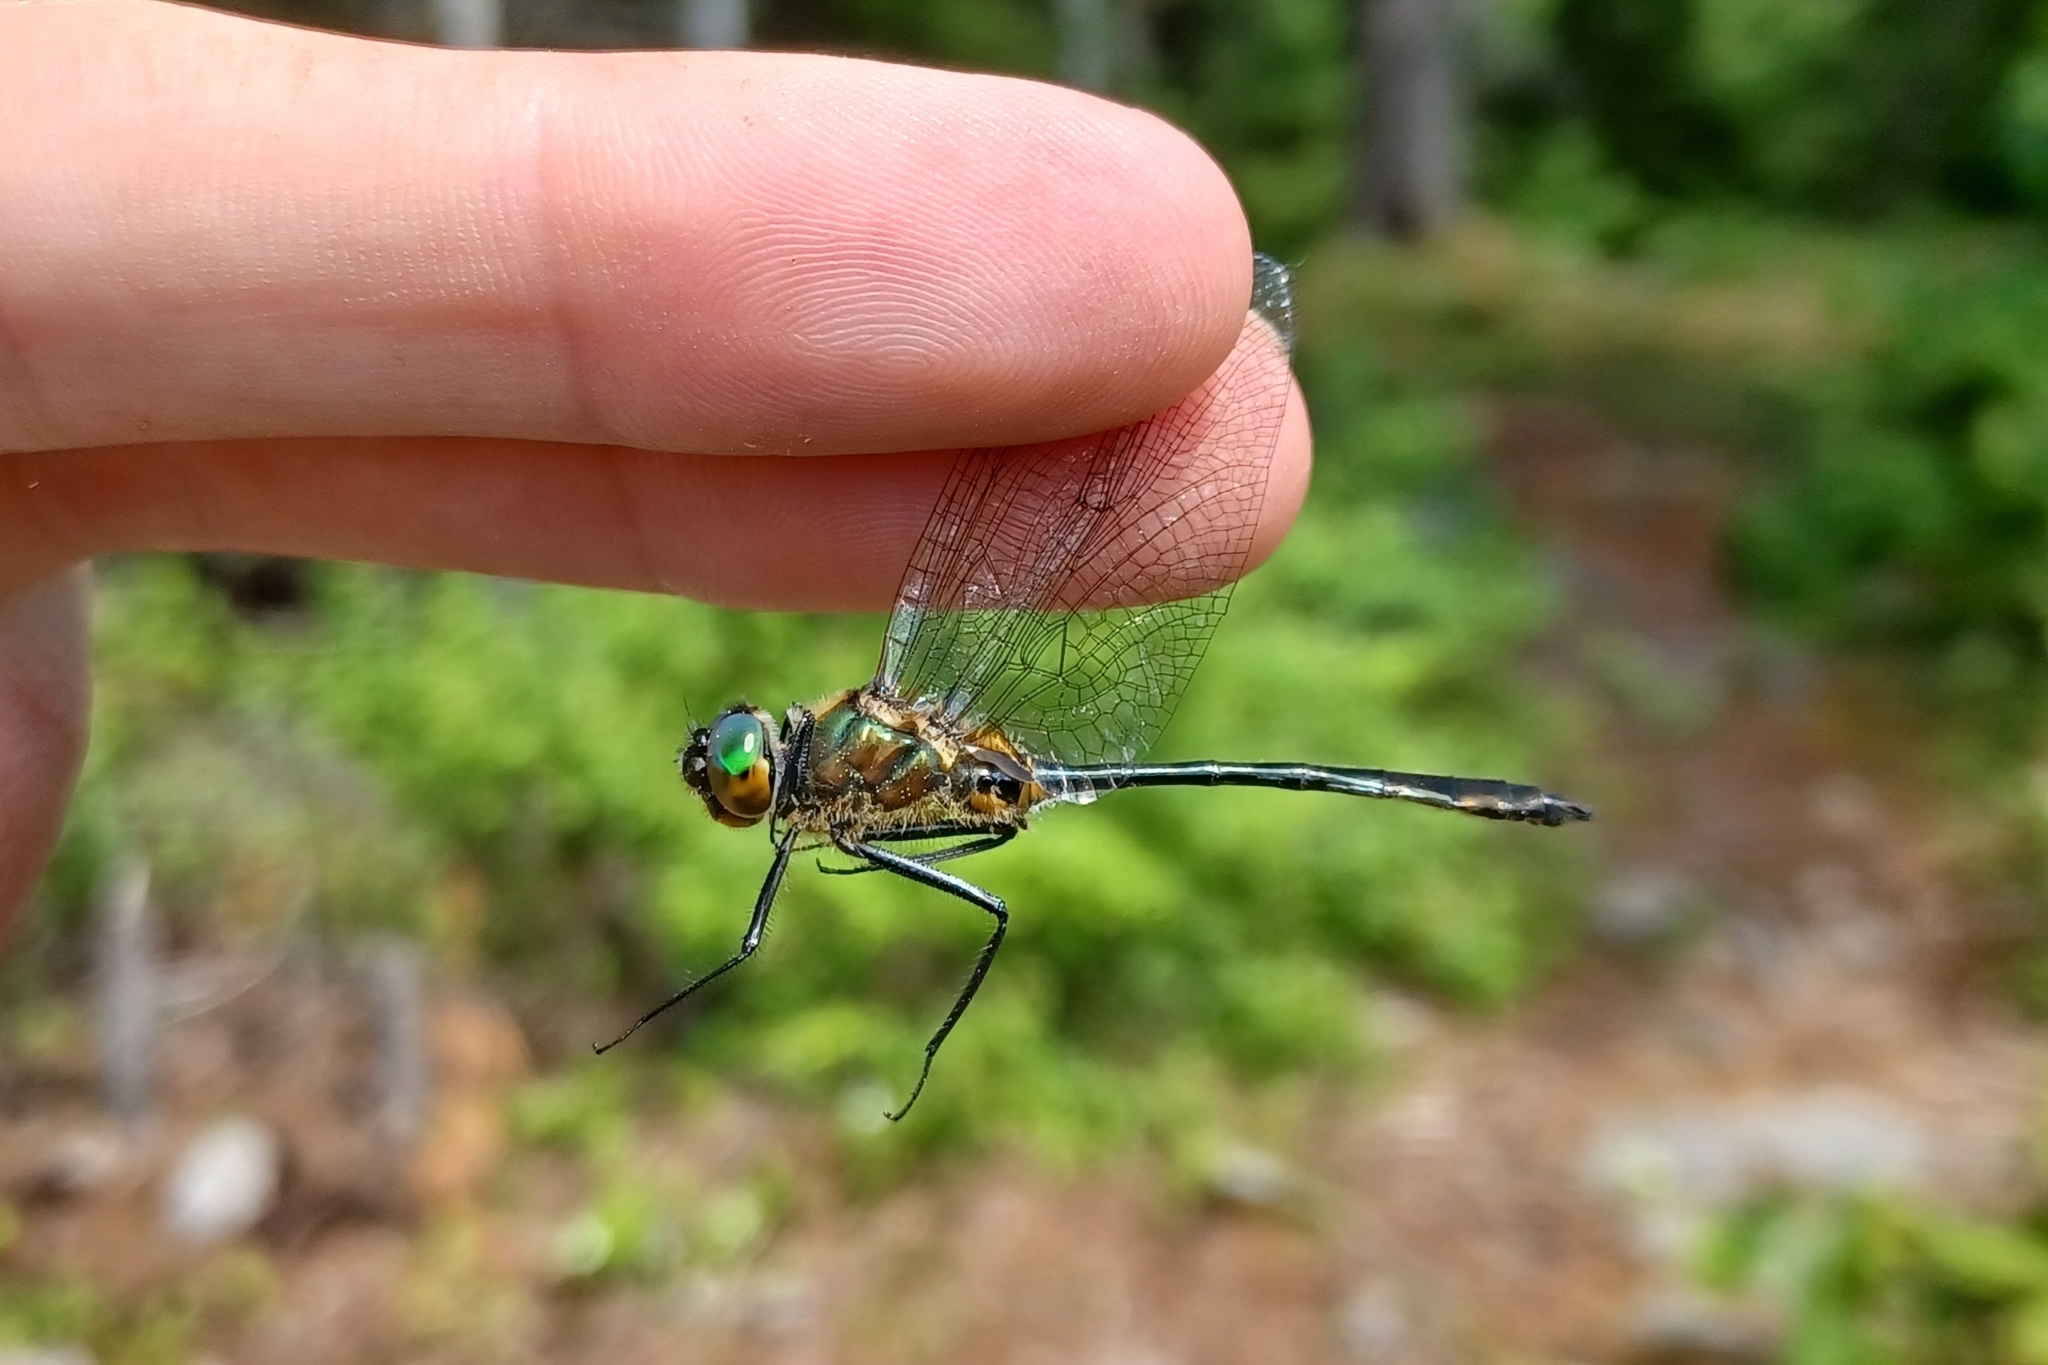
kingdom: Animalia
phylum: Arthropoda
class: Insecta
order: Odonata
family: Corduliidae
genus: Dorocordulia
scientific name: Dorocordulia libera
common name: Racket-tailed emerald
